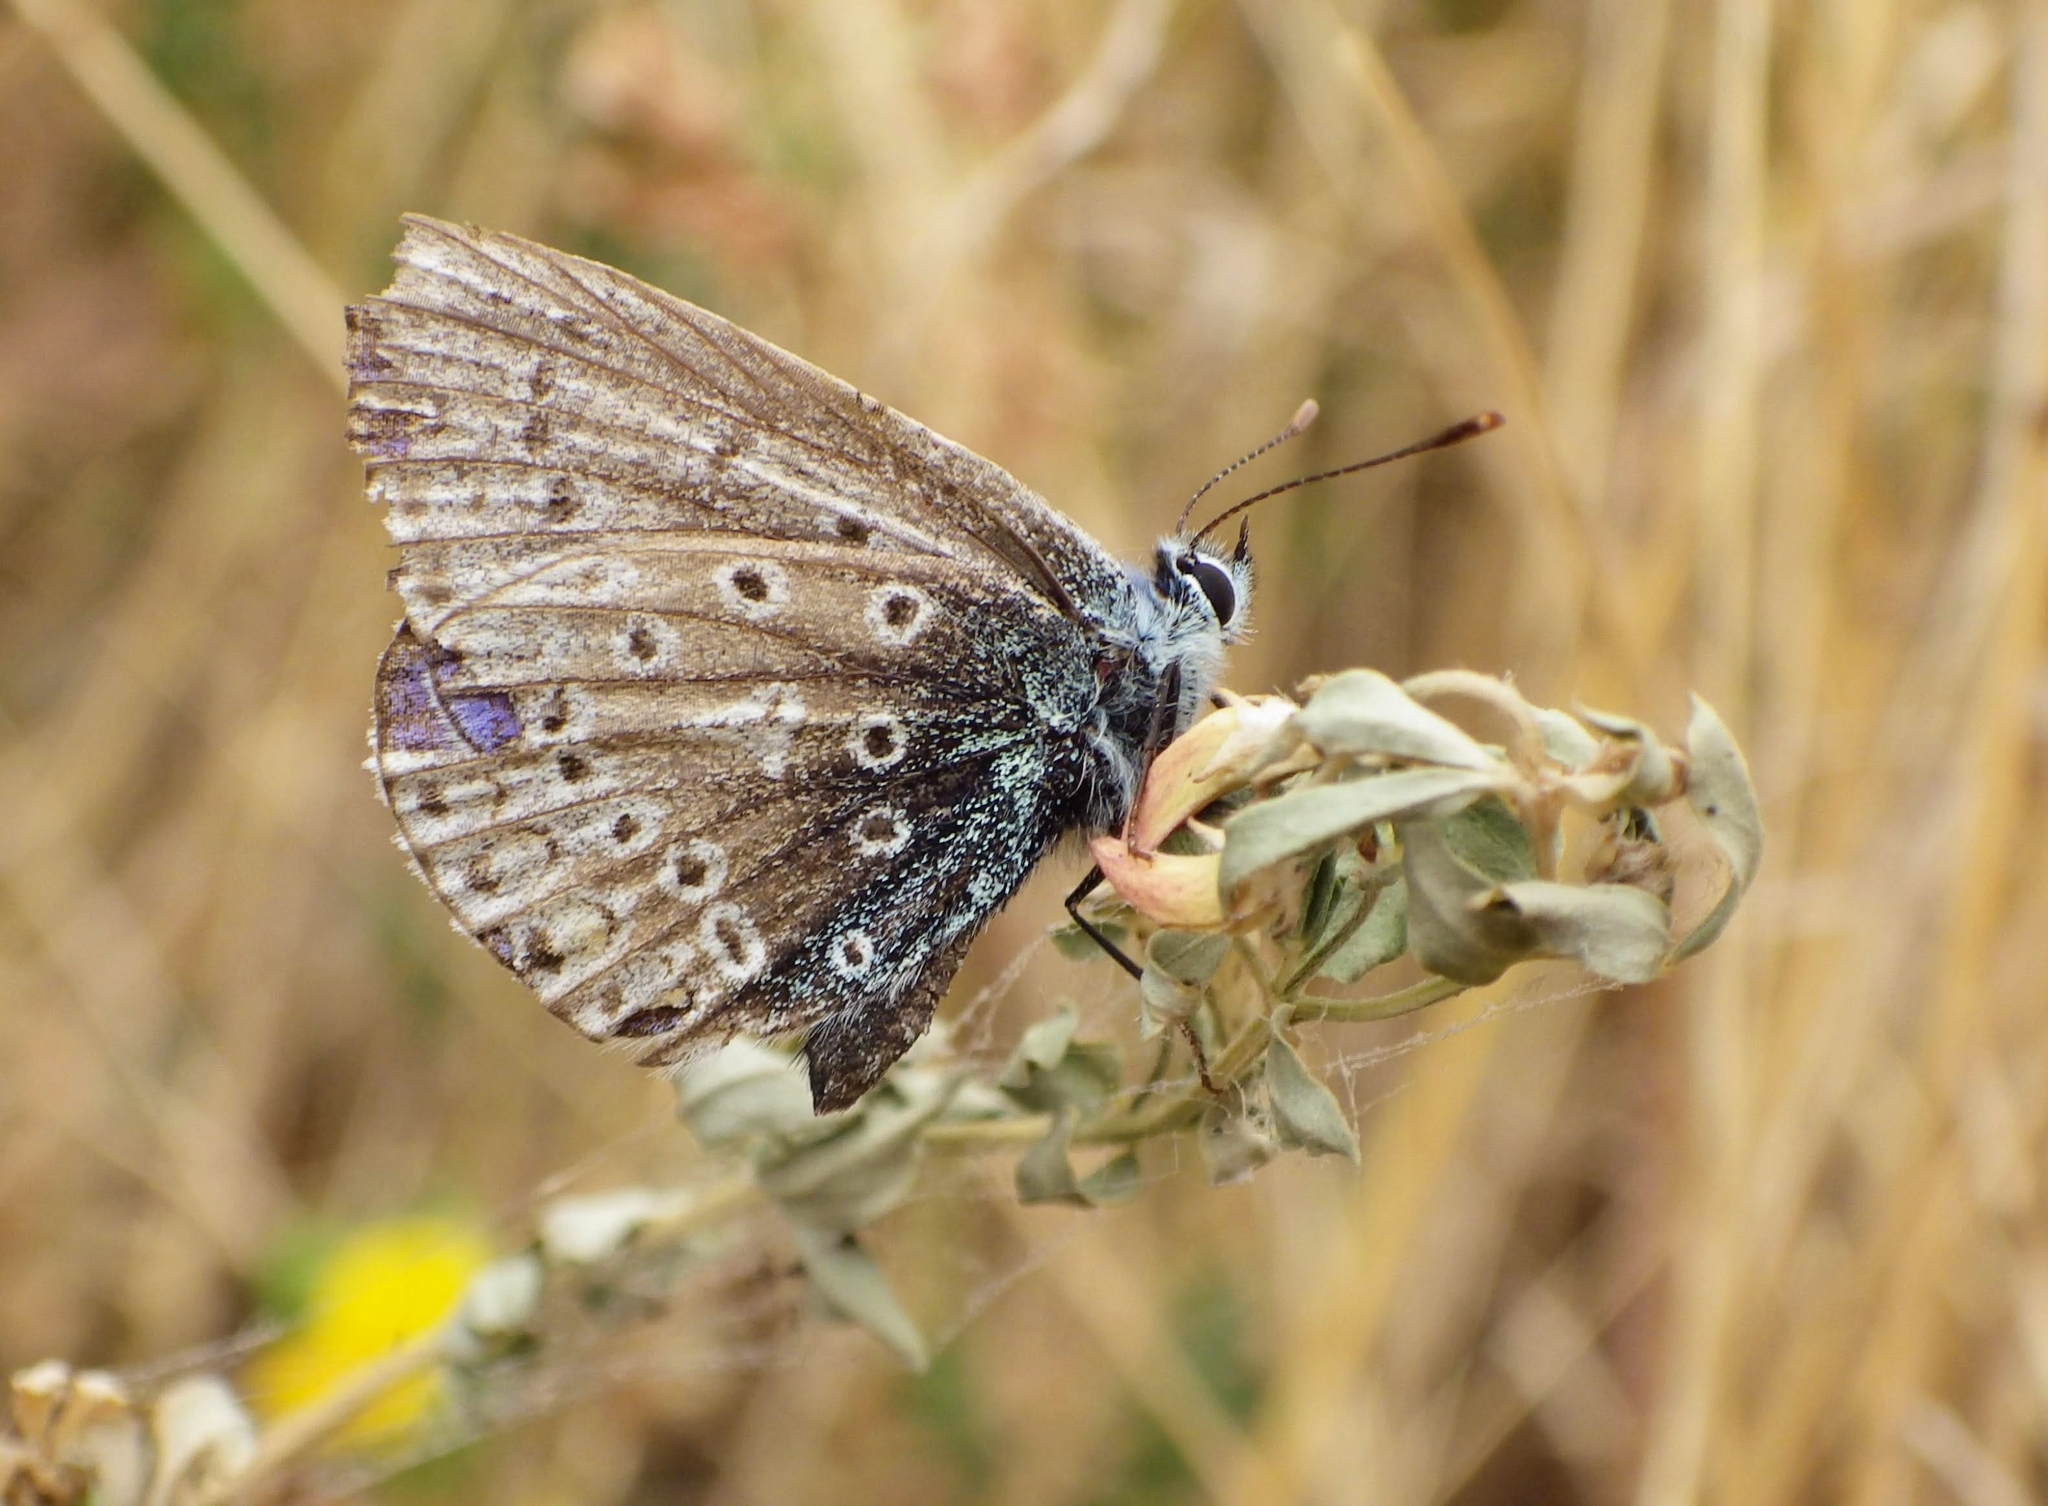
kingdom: Animalia
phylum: Arthropoda
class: Insecta
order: Lepidoptera
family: Lycaenidae
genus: Polyommatus
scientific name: Polyommatus icarus
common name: Common blue
